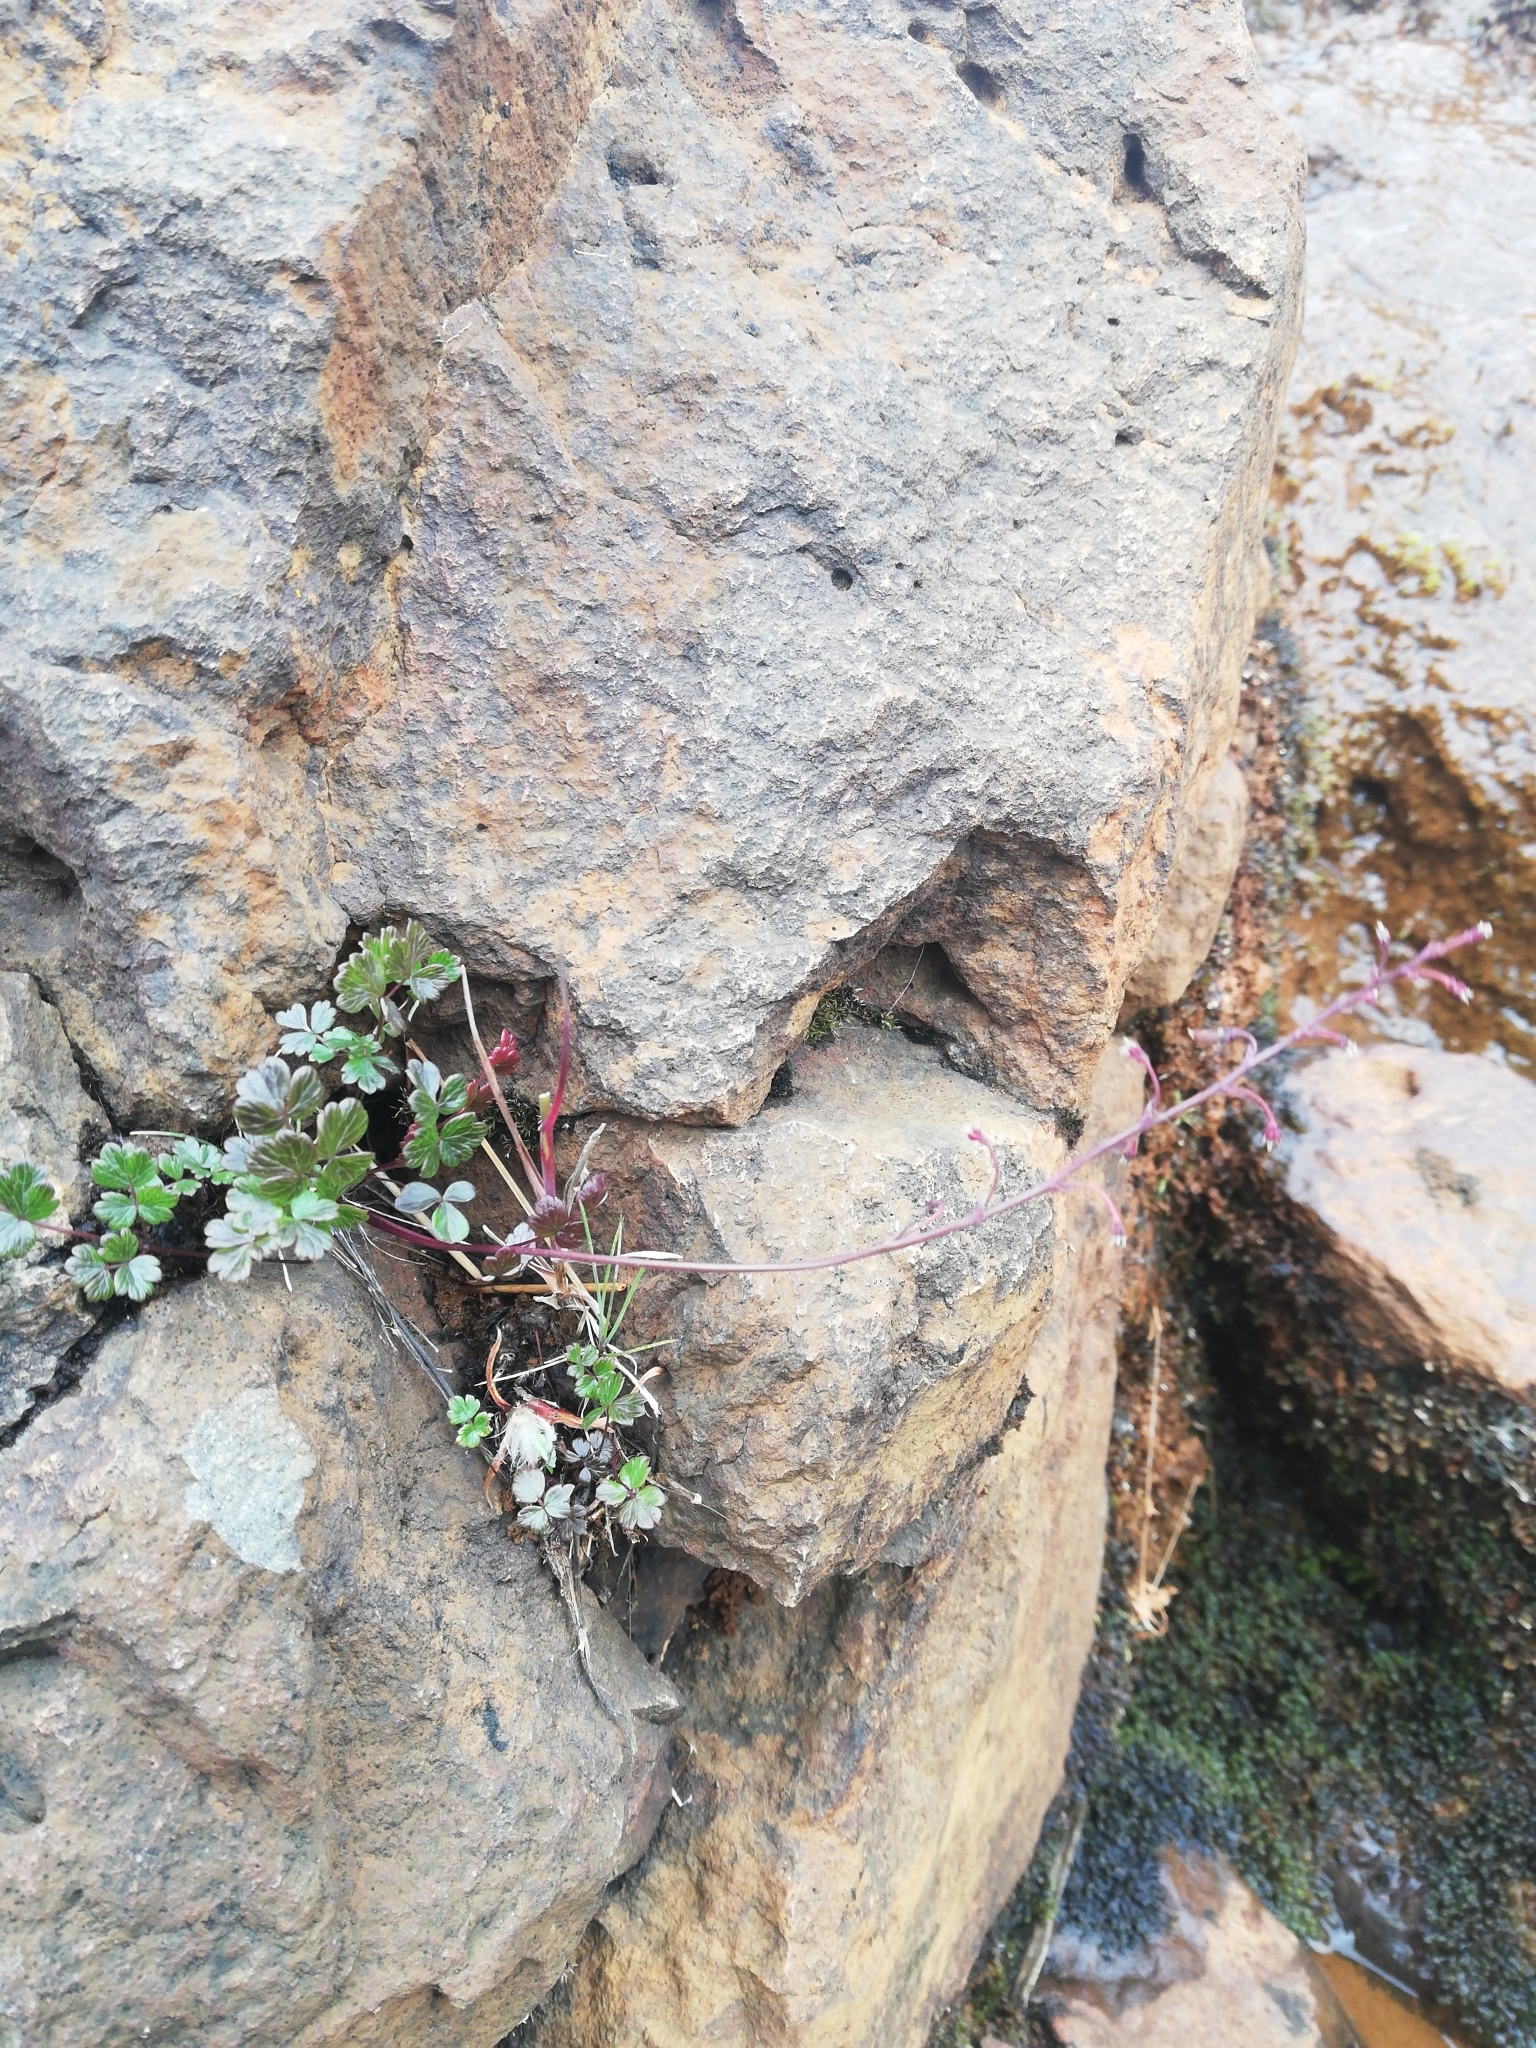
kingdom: Plantae
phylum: Tracheophyta
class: Magnoliopsida
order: Ranunculales
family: Ranunculaceae
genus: Thalictrum
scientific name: Thalictrum alpinum
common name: Alpine meadow-rue
